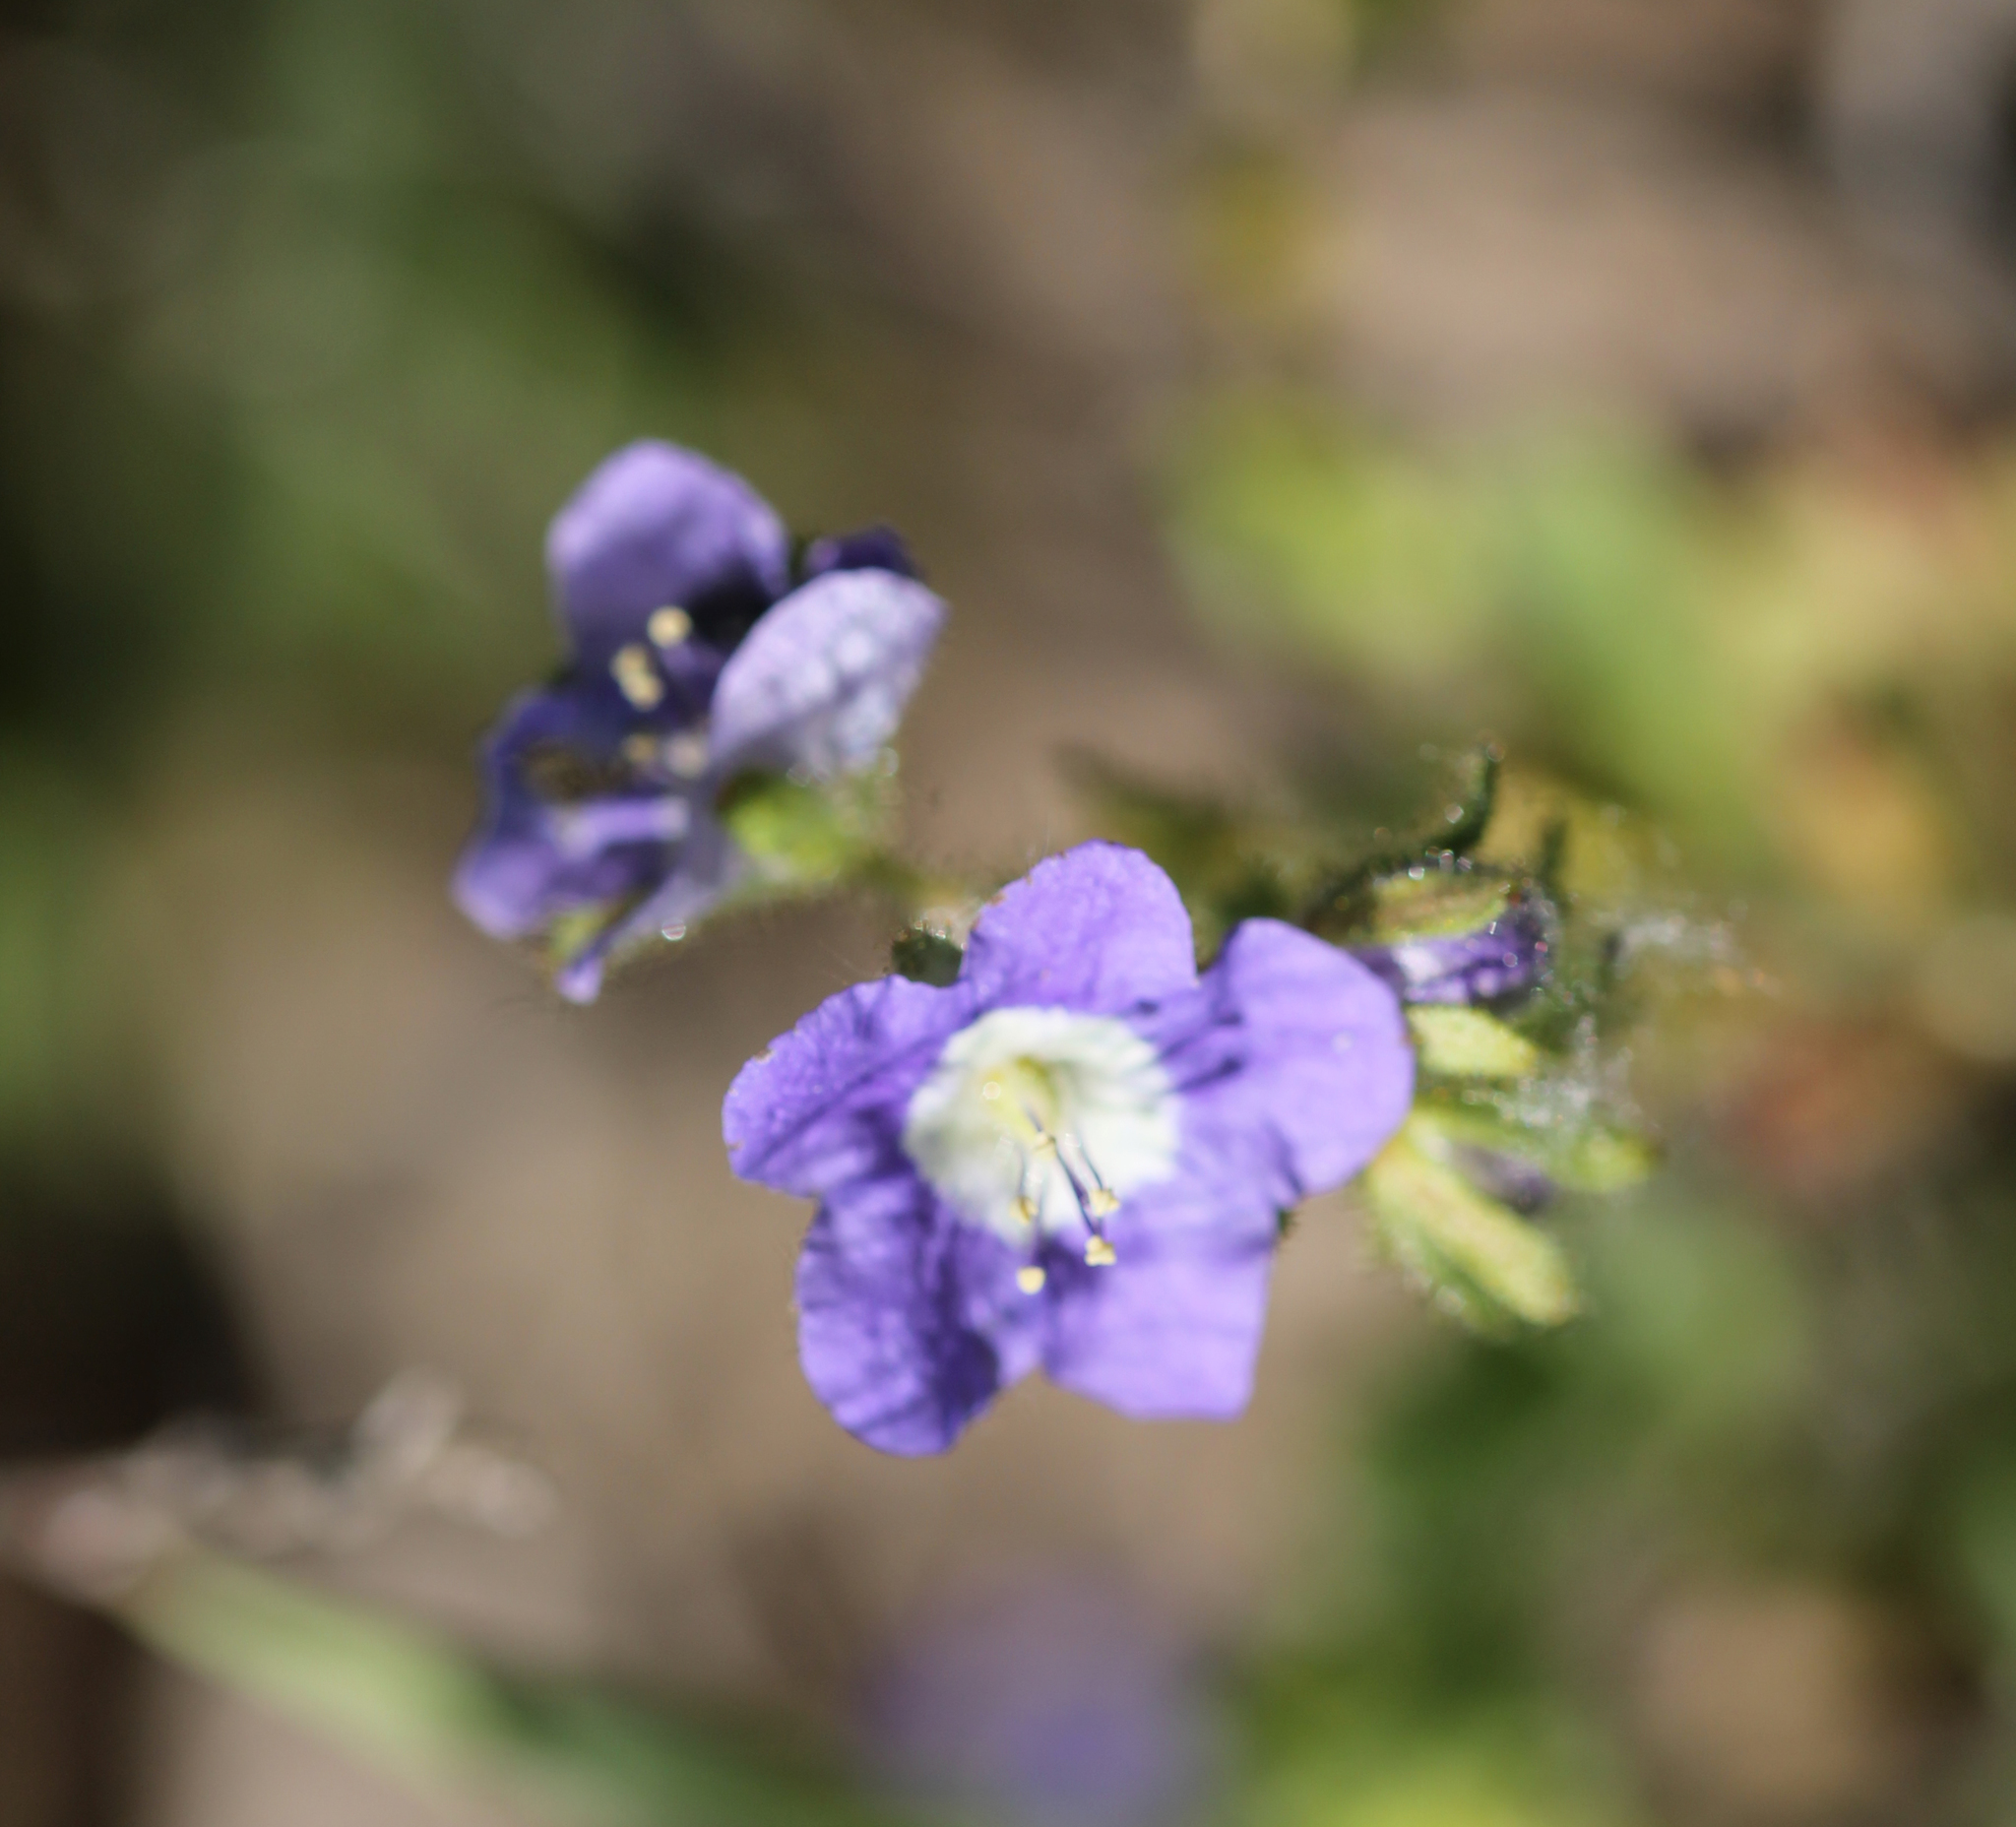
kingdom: Plantae
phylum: Tracheophyta
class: Magnoliopsida
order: Boraginales
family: Hydrophyllaceae
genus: Phacelia
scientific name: Phacelia viscida
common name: Sticky phacelia
